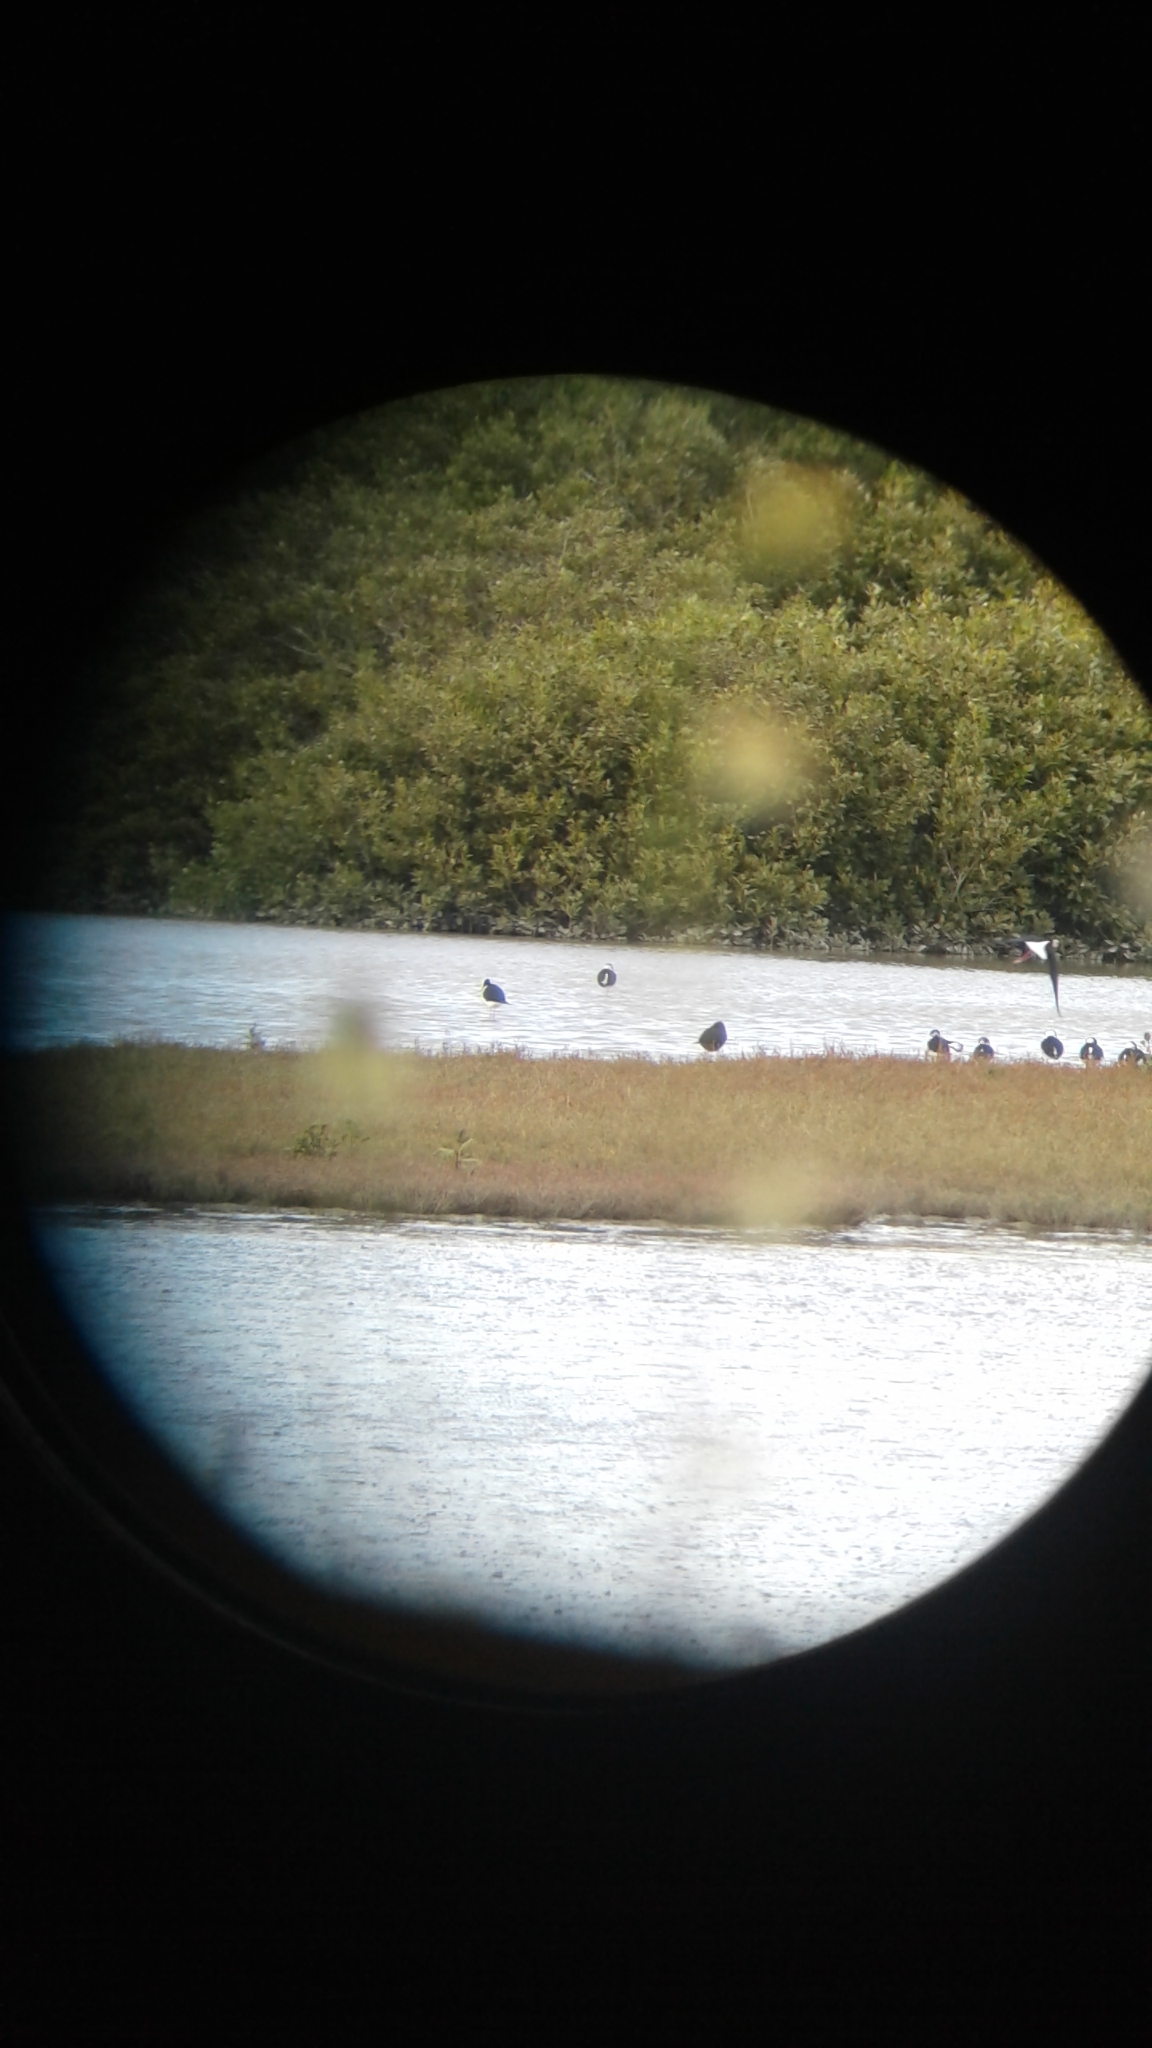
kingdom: Animalia
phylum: Chordata
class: Aves
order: Charadriiformes
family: Recurvirostridae
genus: Himantopus
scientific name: Himantopus novaezelandiae
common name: Black stilt
